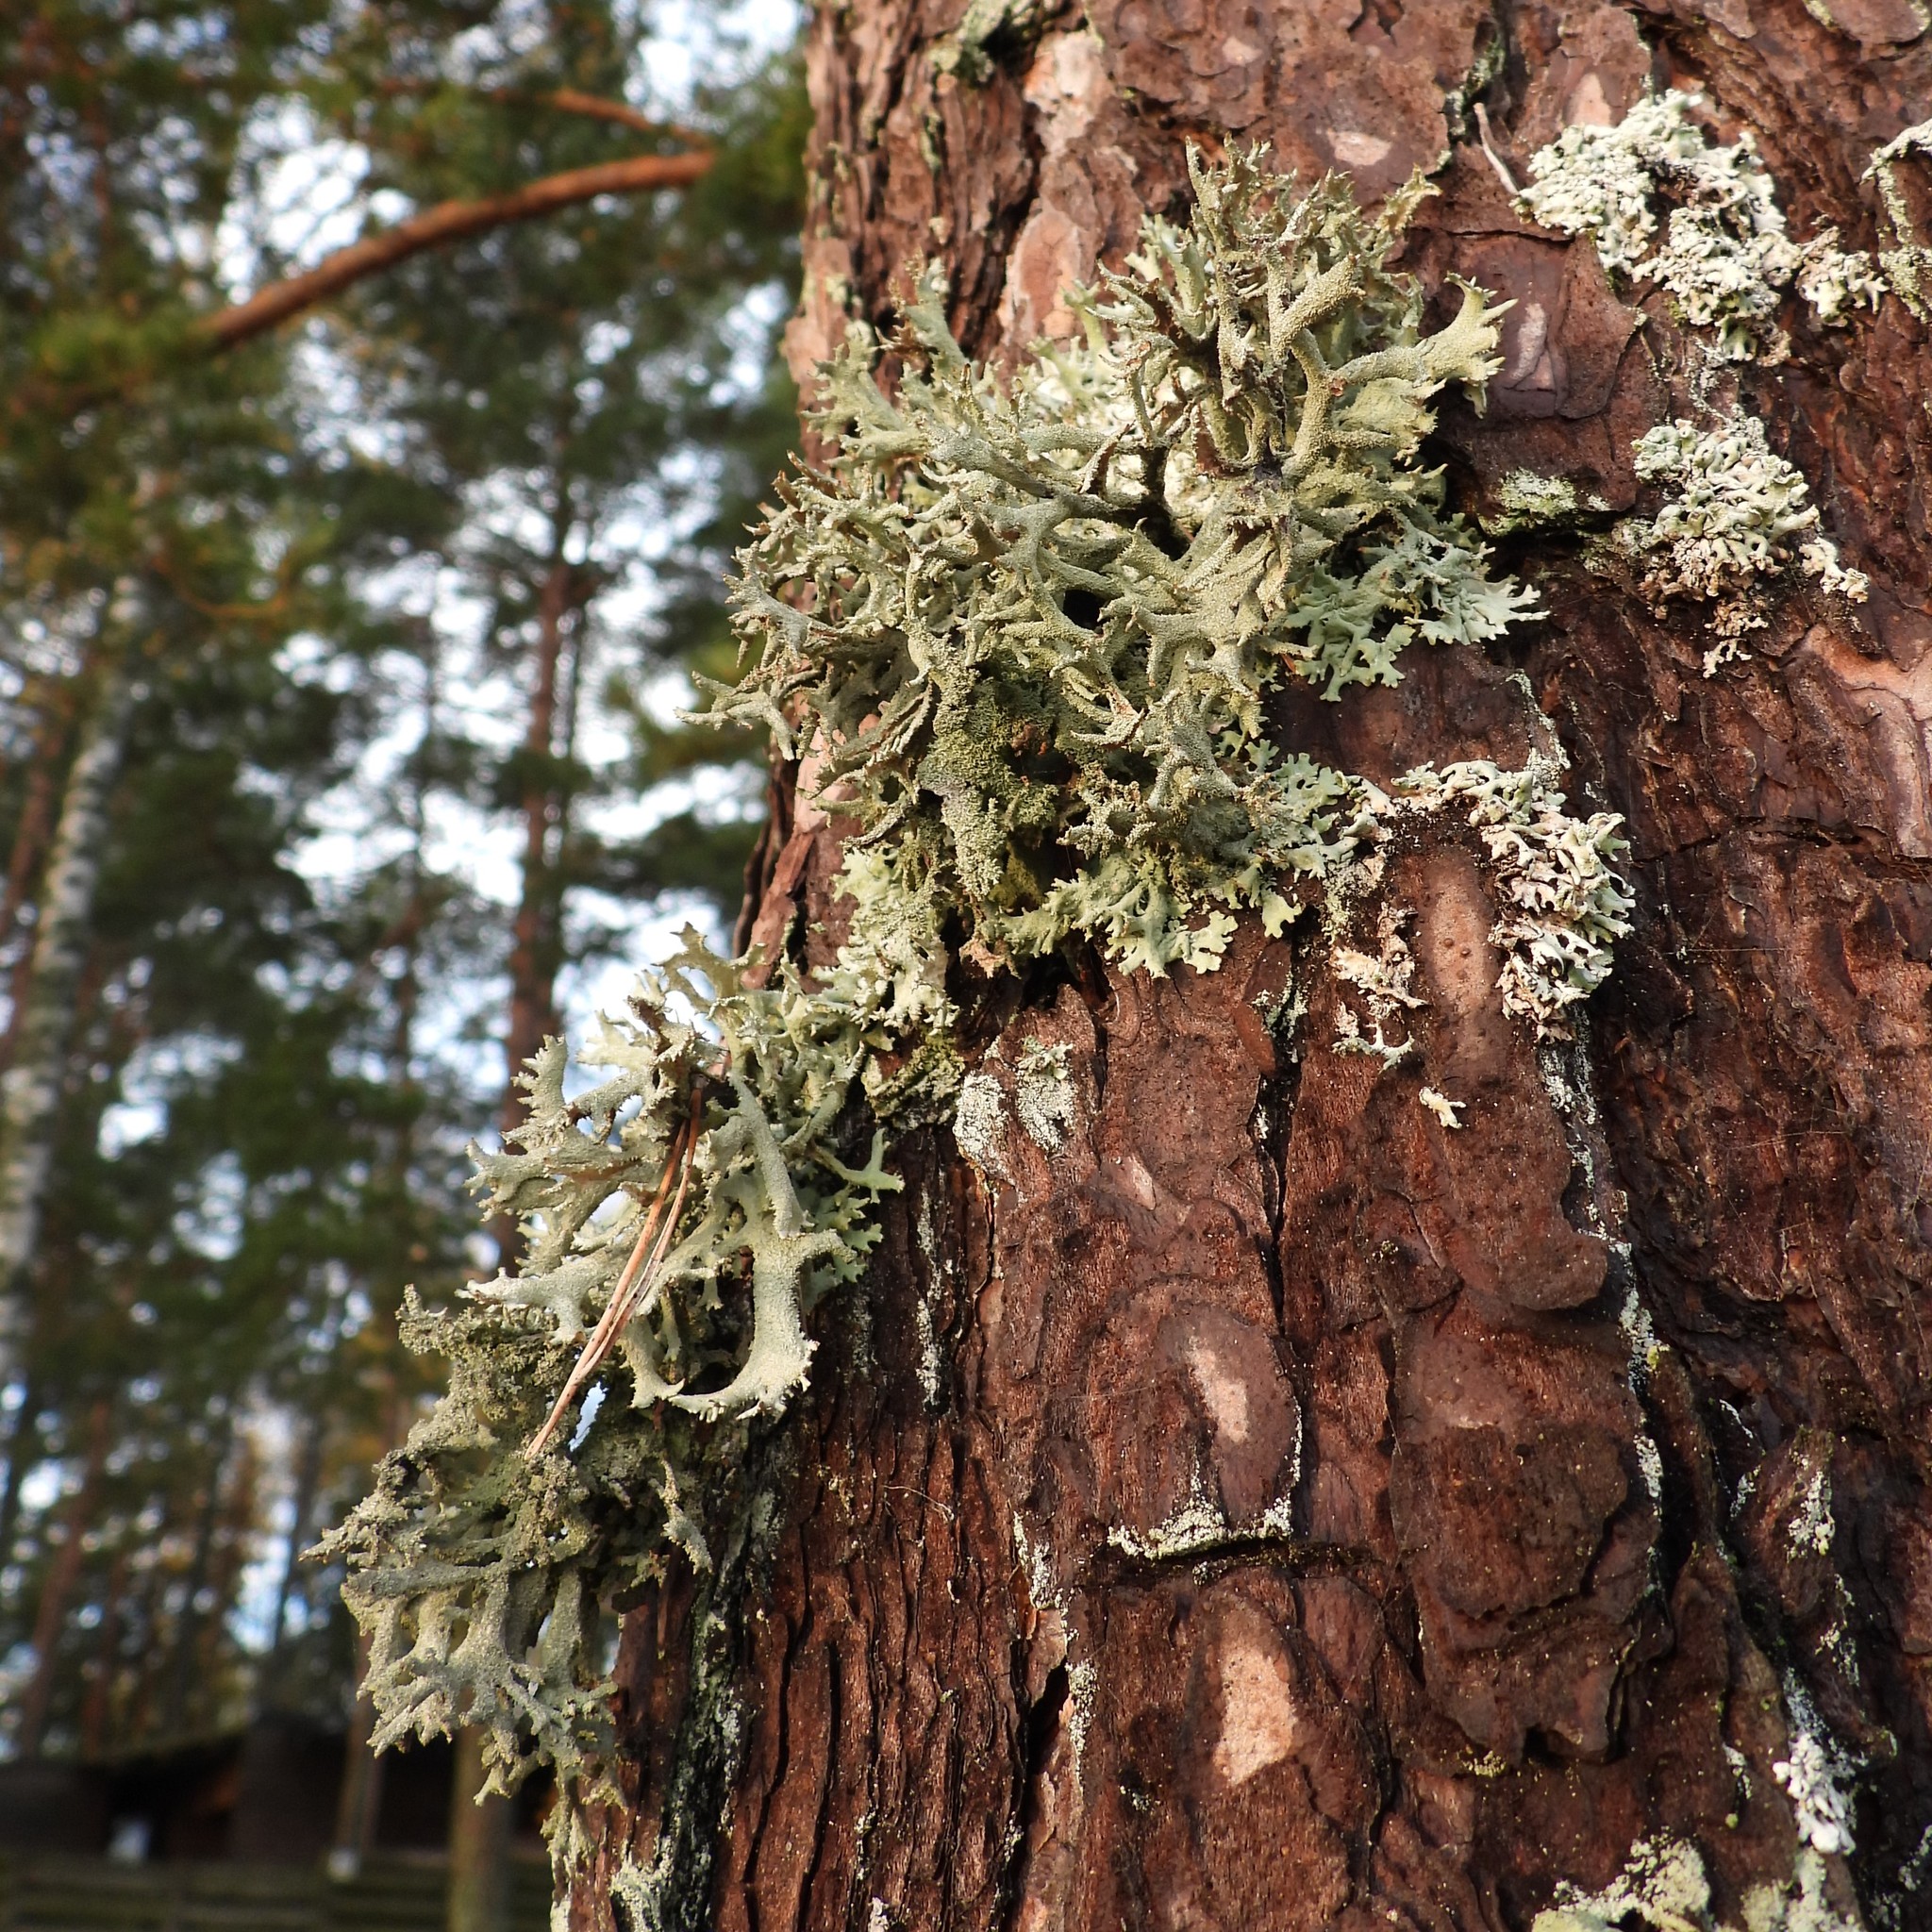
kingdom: Fungi
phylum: Ascomycota
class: Lecanoromycetes
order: Lecanorales
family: Parmeliaceae
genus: Pseudevernia
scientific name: Pseudevernia furfuracea
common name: Tree moss
